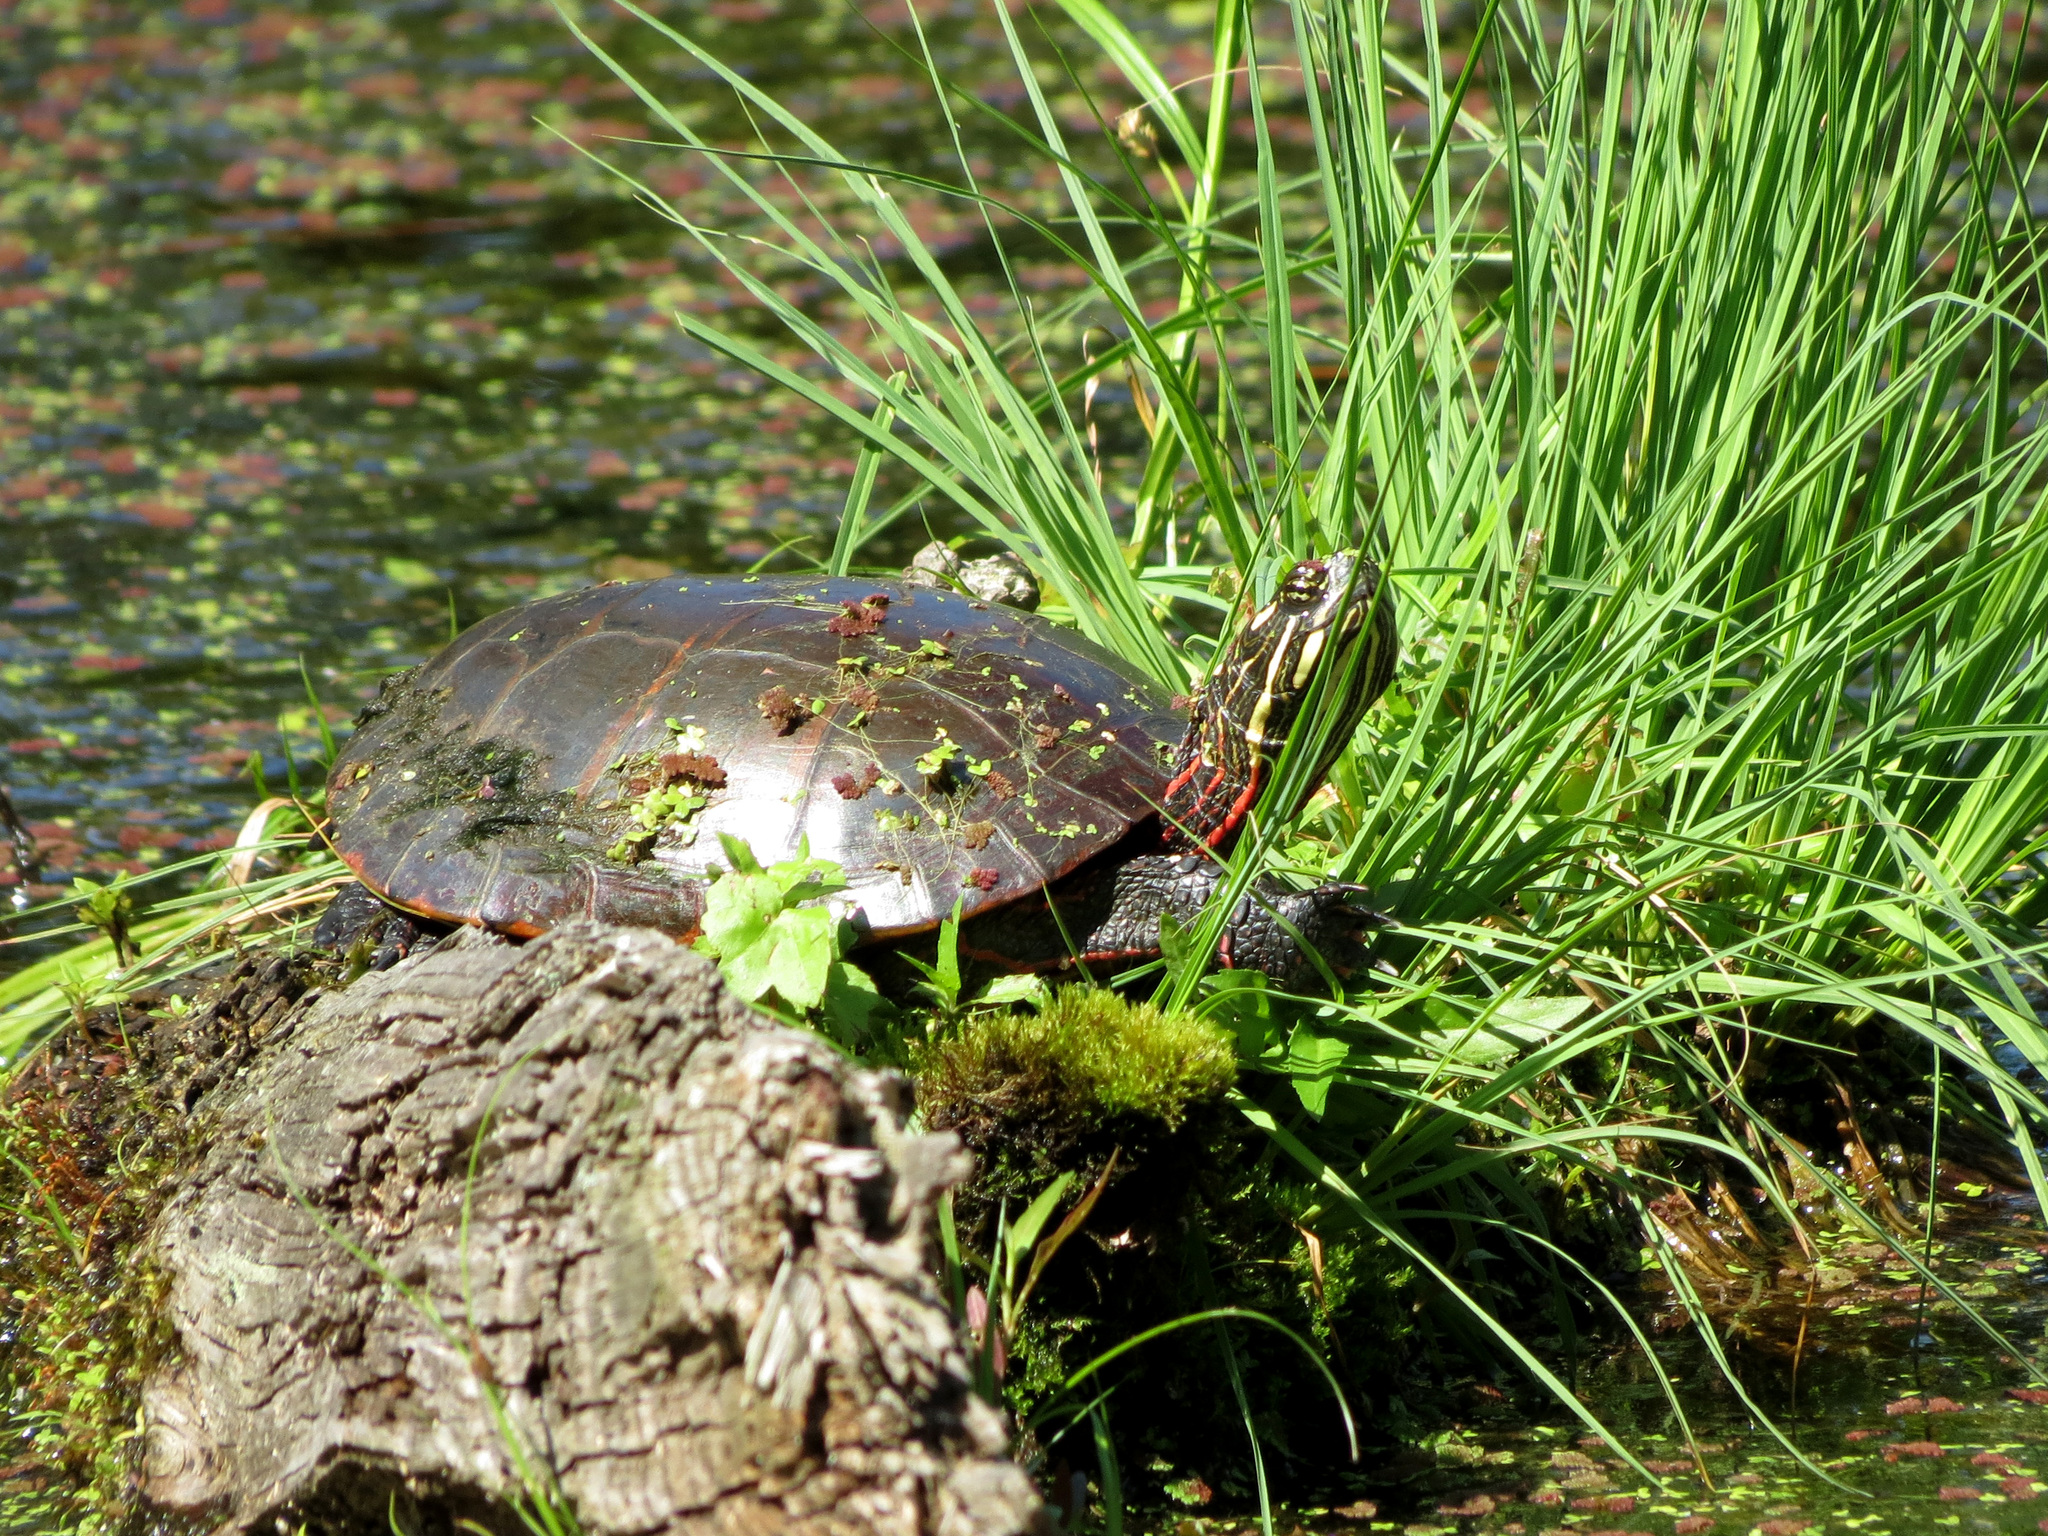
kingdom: Animalia
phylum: Chordata
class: Testudines
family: Emydidae
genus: Chrysemys
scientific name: Chrysemys picta
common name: Painted turtle
